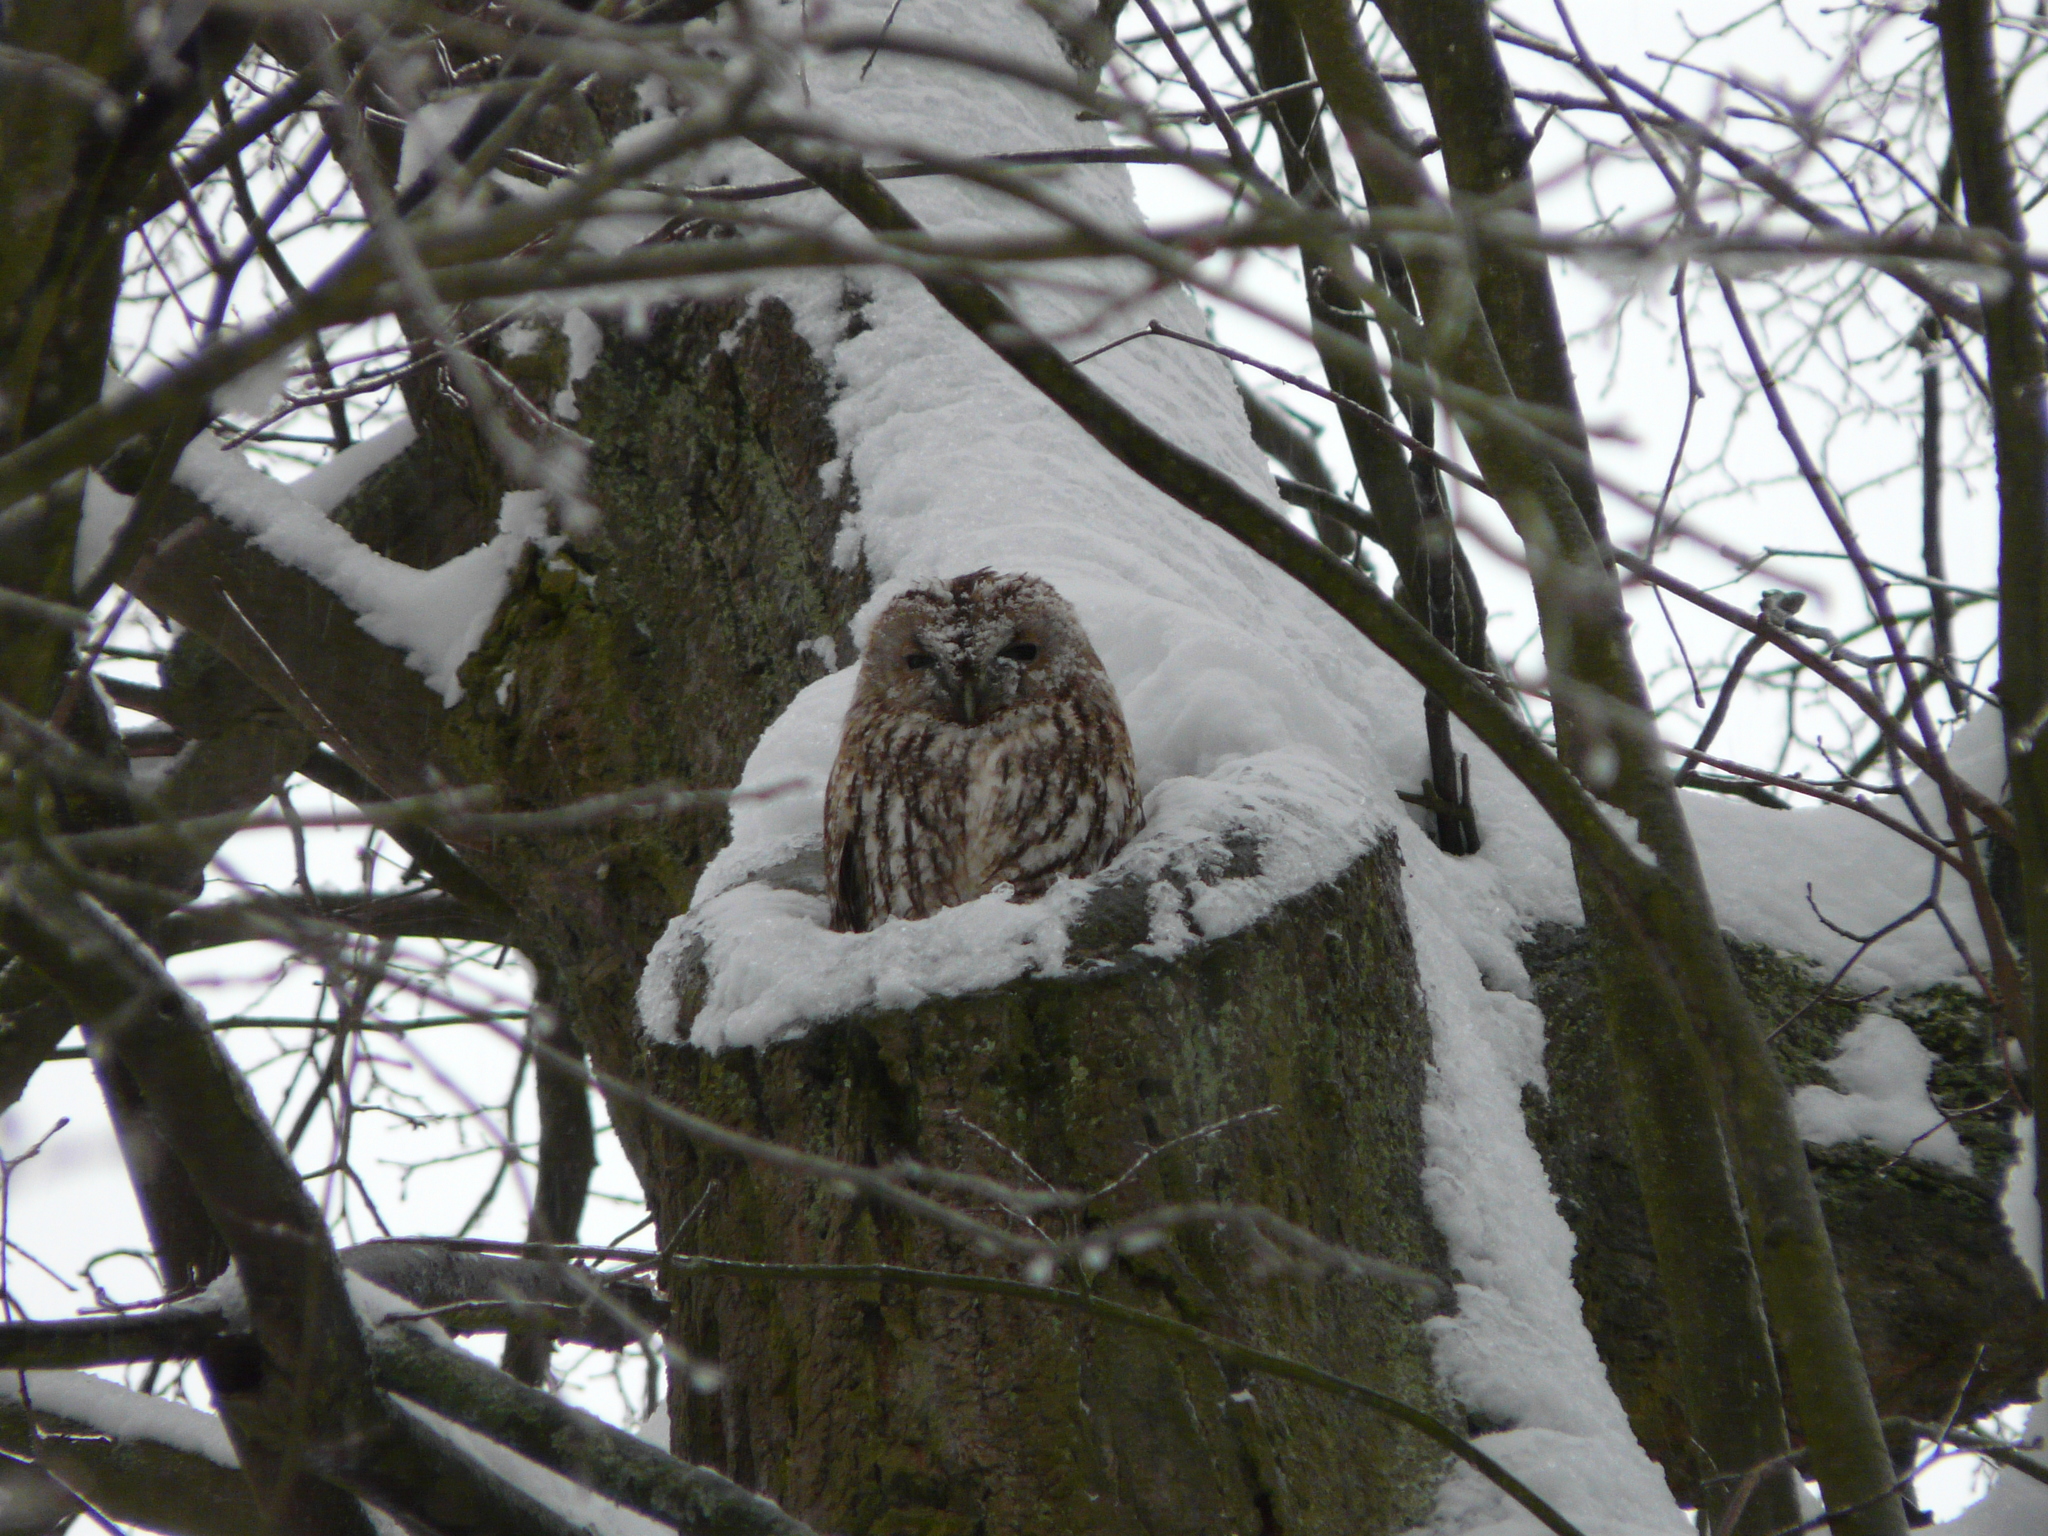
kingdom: Animalia
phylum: Chordata
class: Aves
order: Strigiformes
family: Strigidae
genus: Strix
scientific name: Strix aluco
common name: Tawny owl
